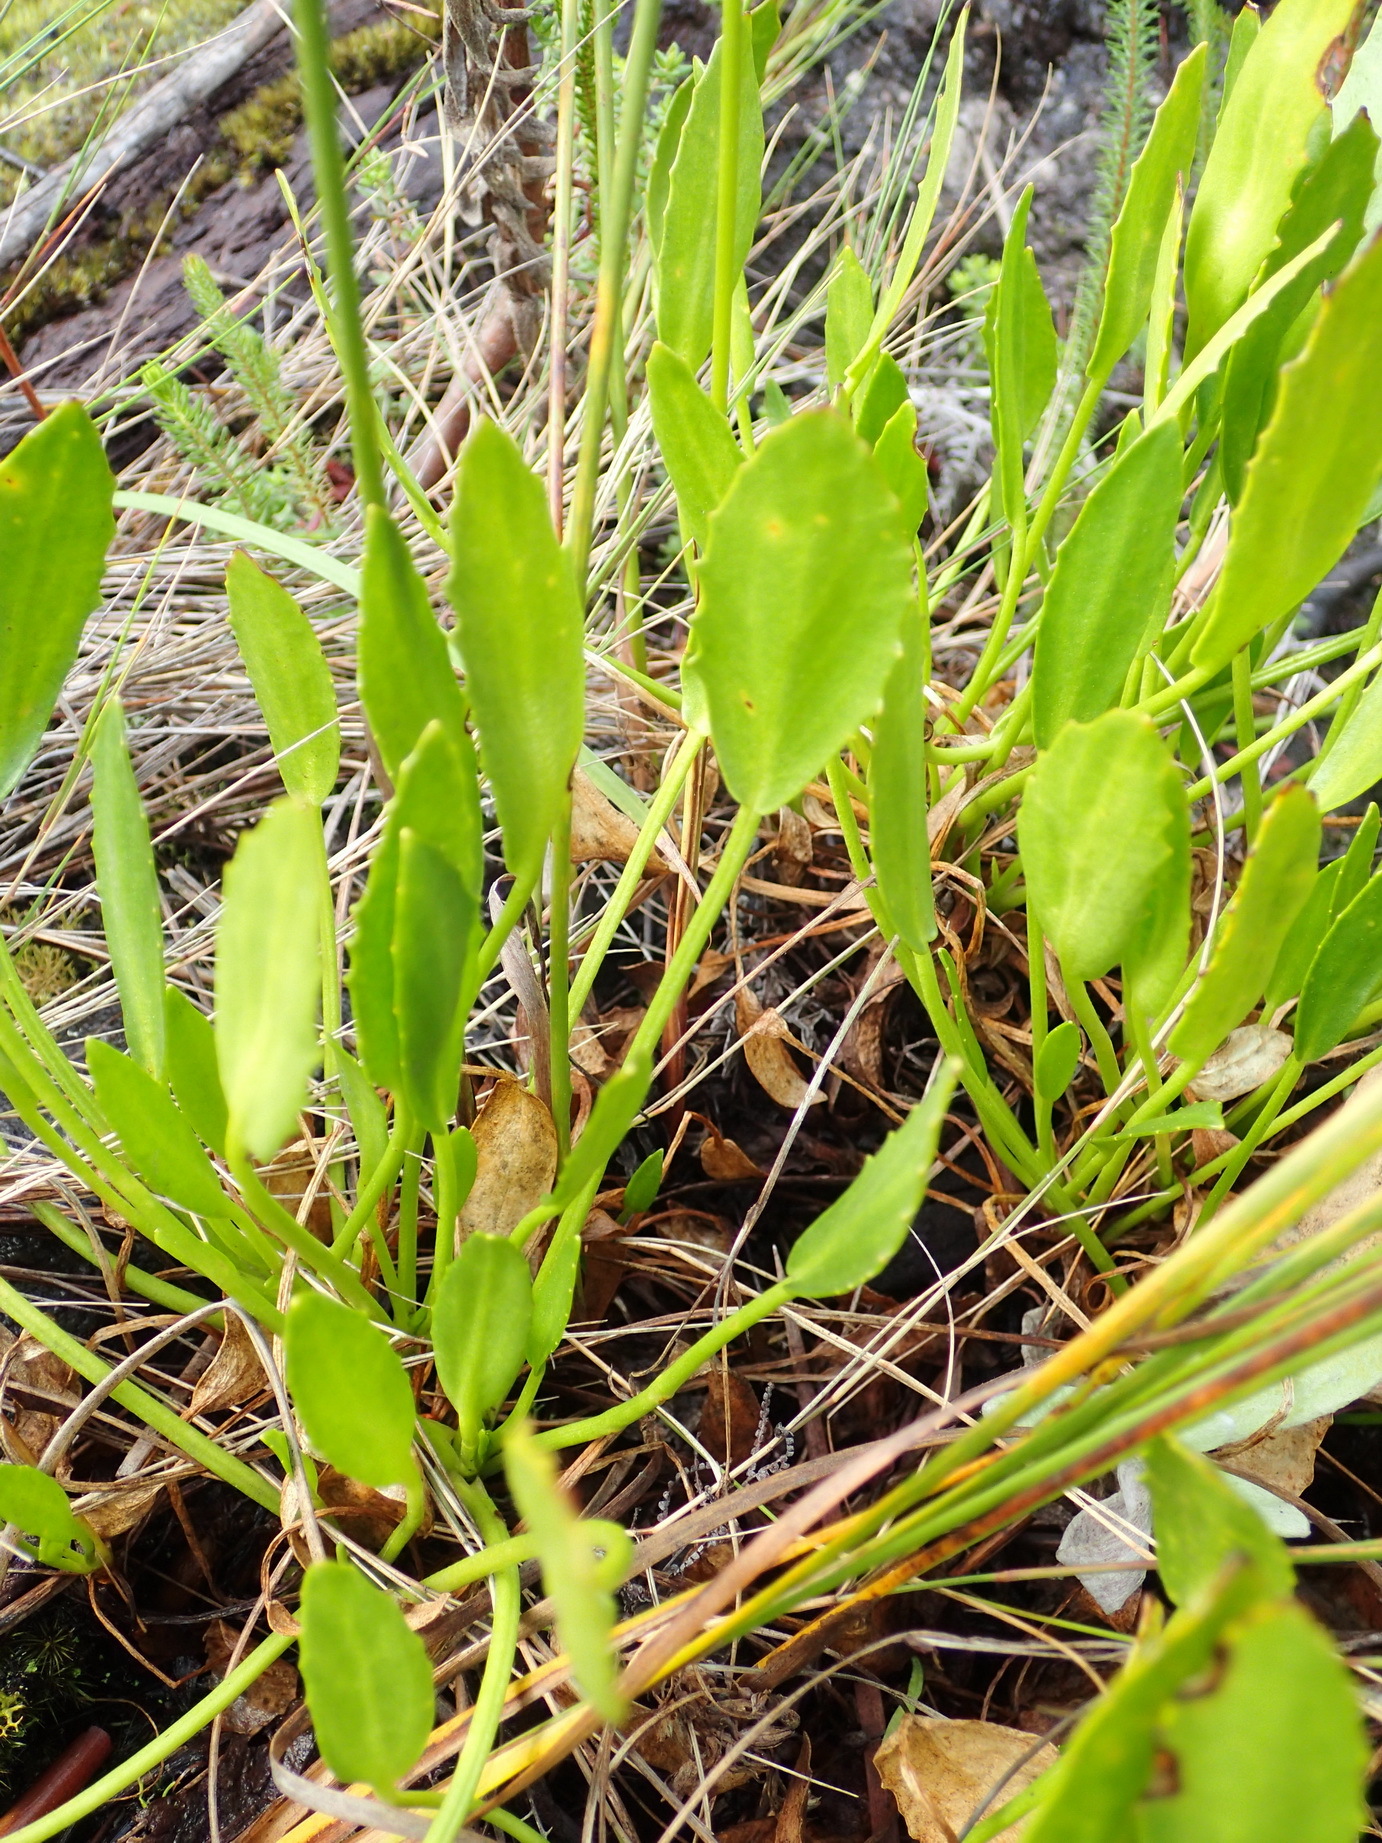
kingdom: Plantae
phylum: Tracheophyta
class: Magnoliopsida
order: Asterales
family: Menyanthaceae
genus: Villarsia
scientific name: Villarsia capensis
